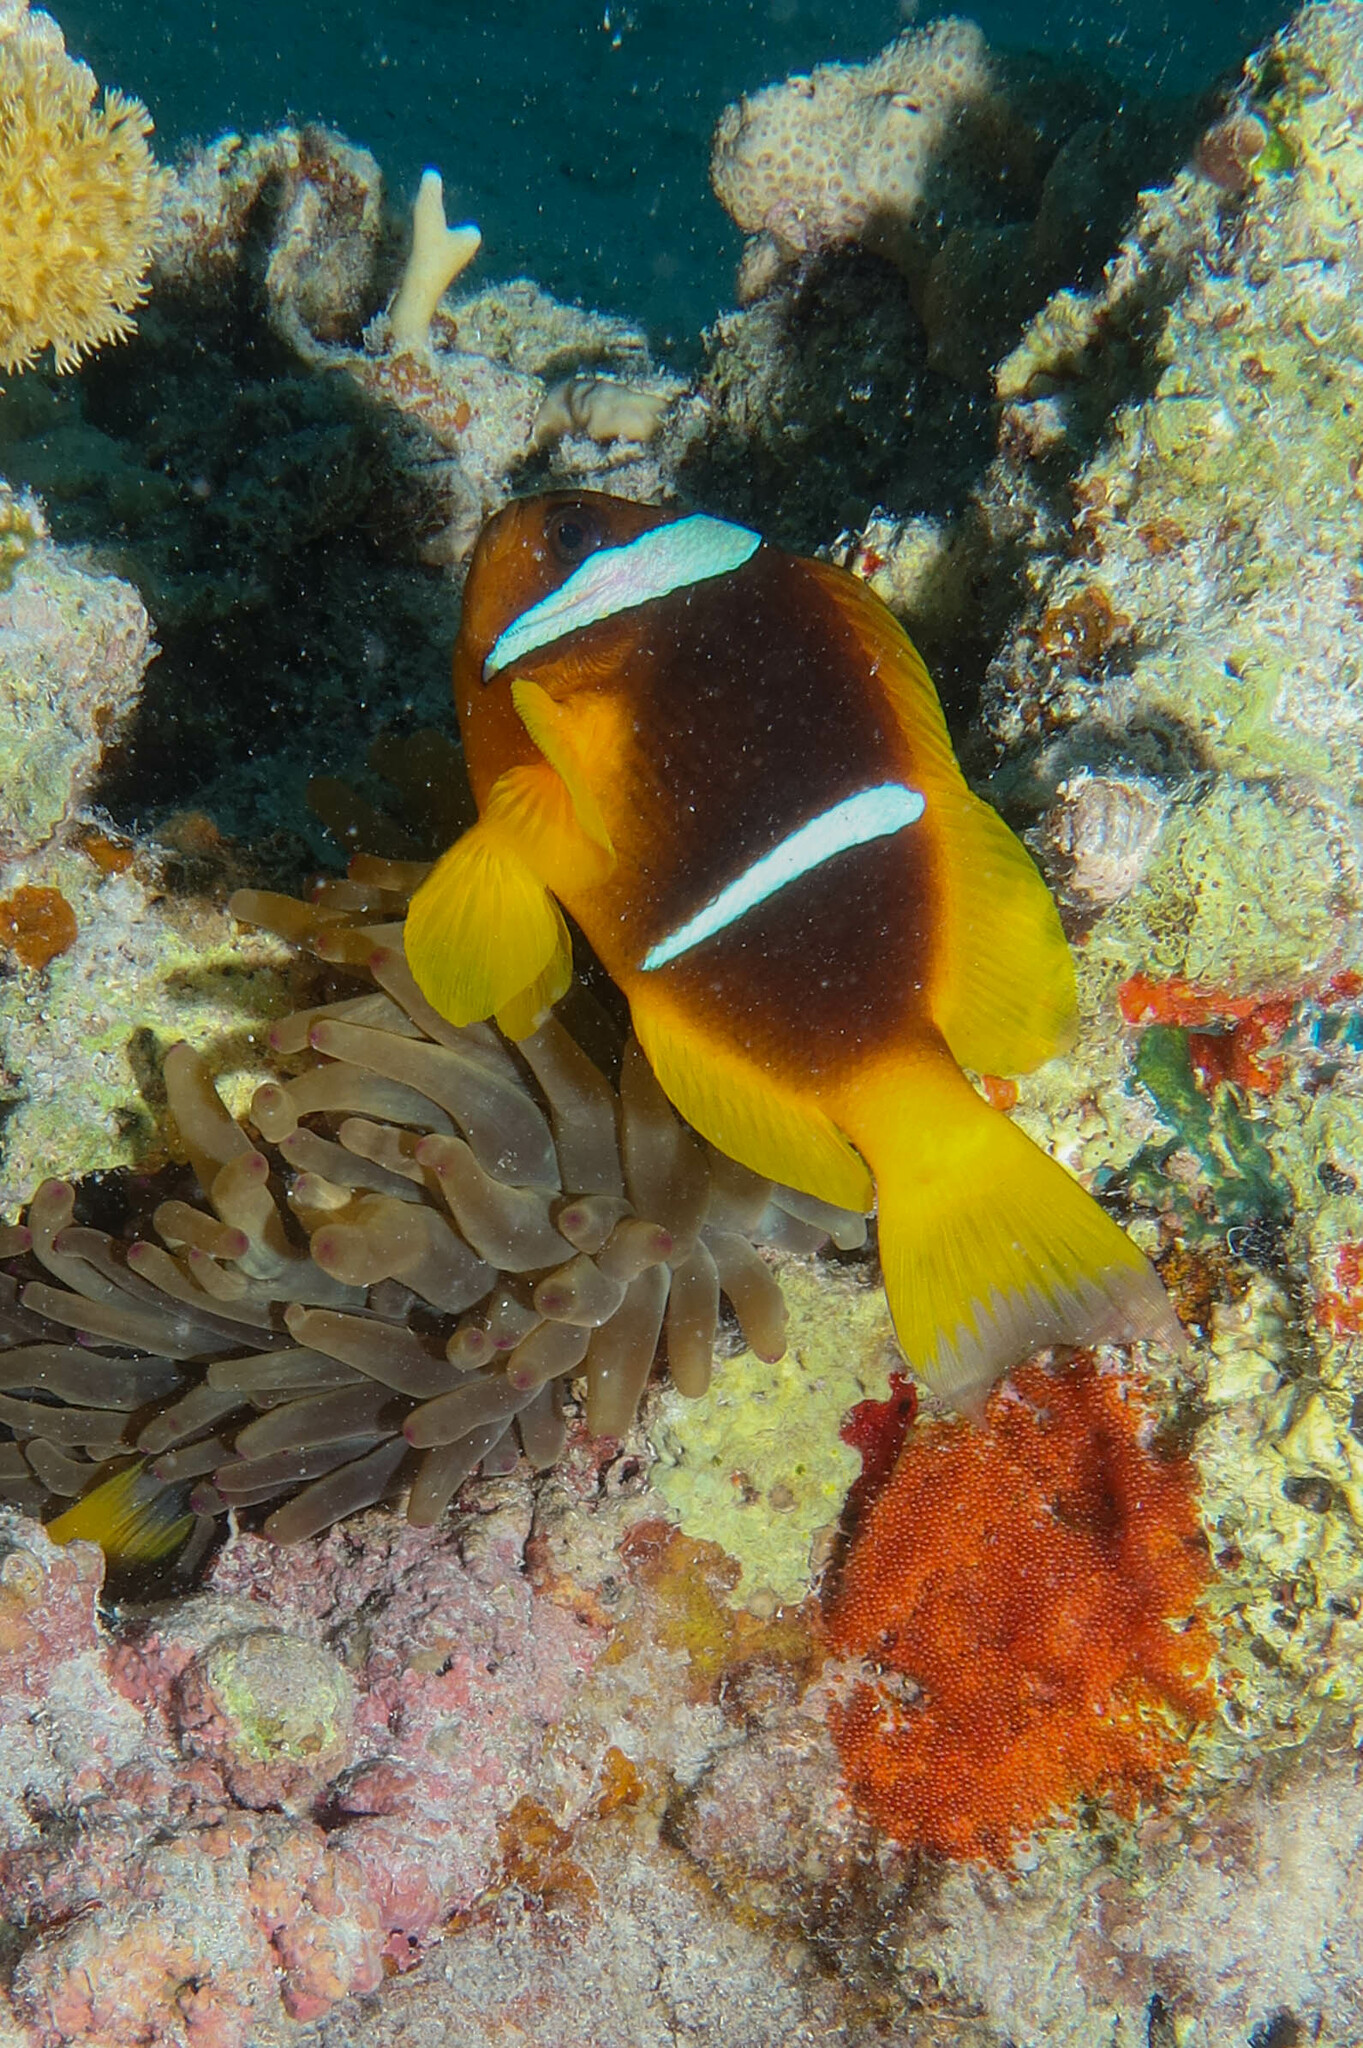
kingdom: Animalia
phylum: Chordata
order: Perciformes
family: Pomacentridae
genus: Amphiprion
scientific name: Amphiprion bicinctus
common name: Two-banded anemonefish
